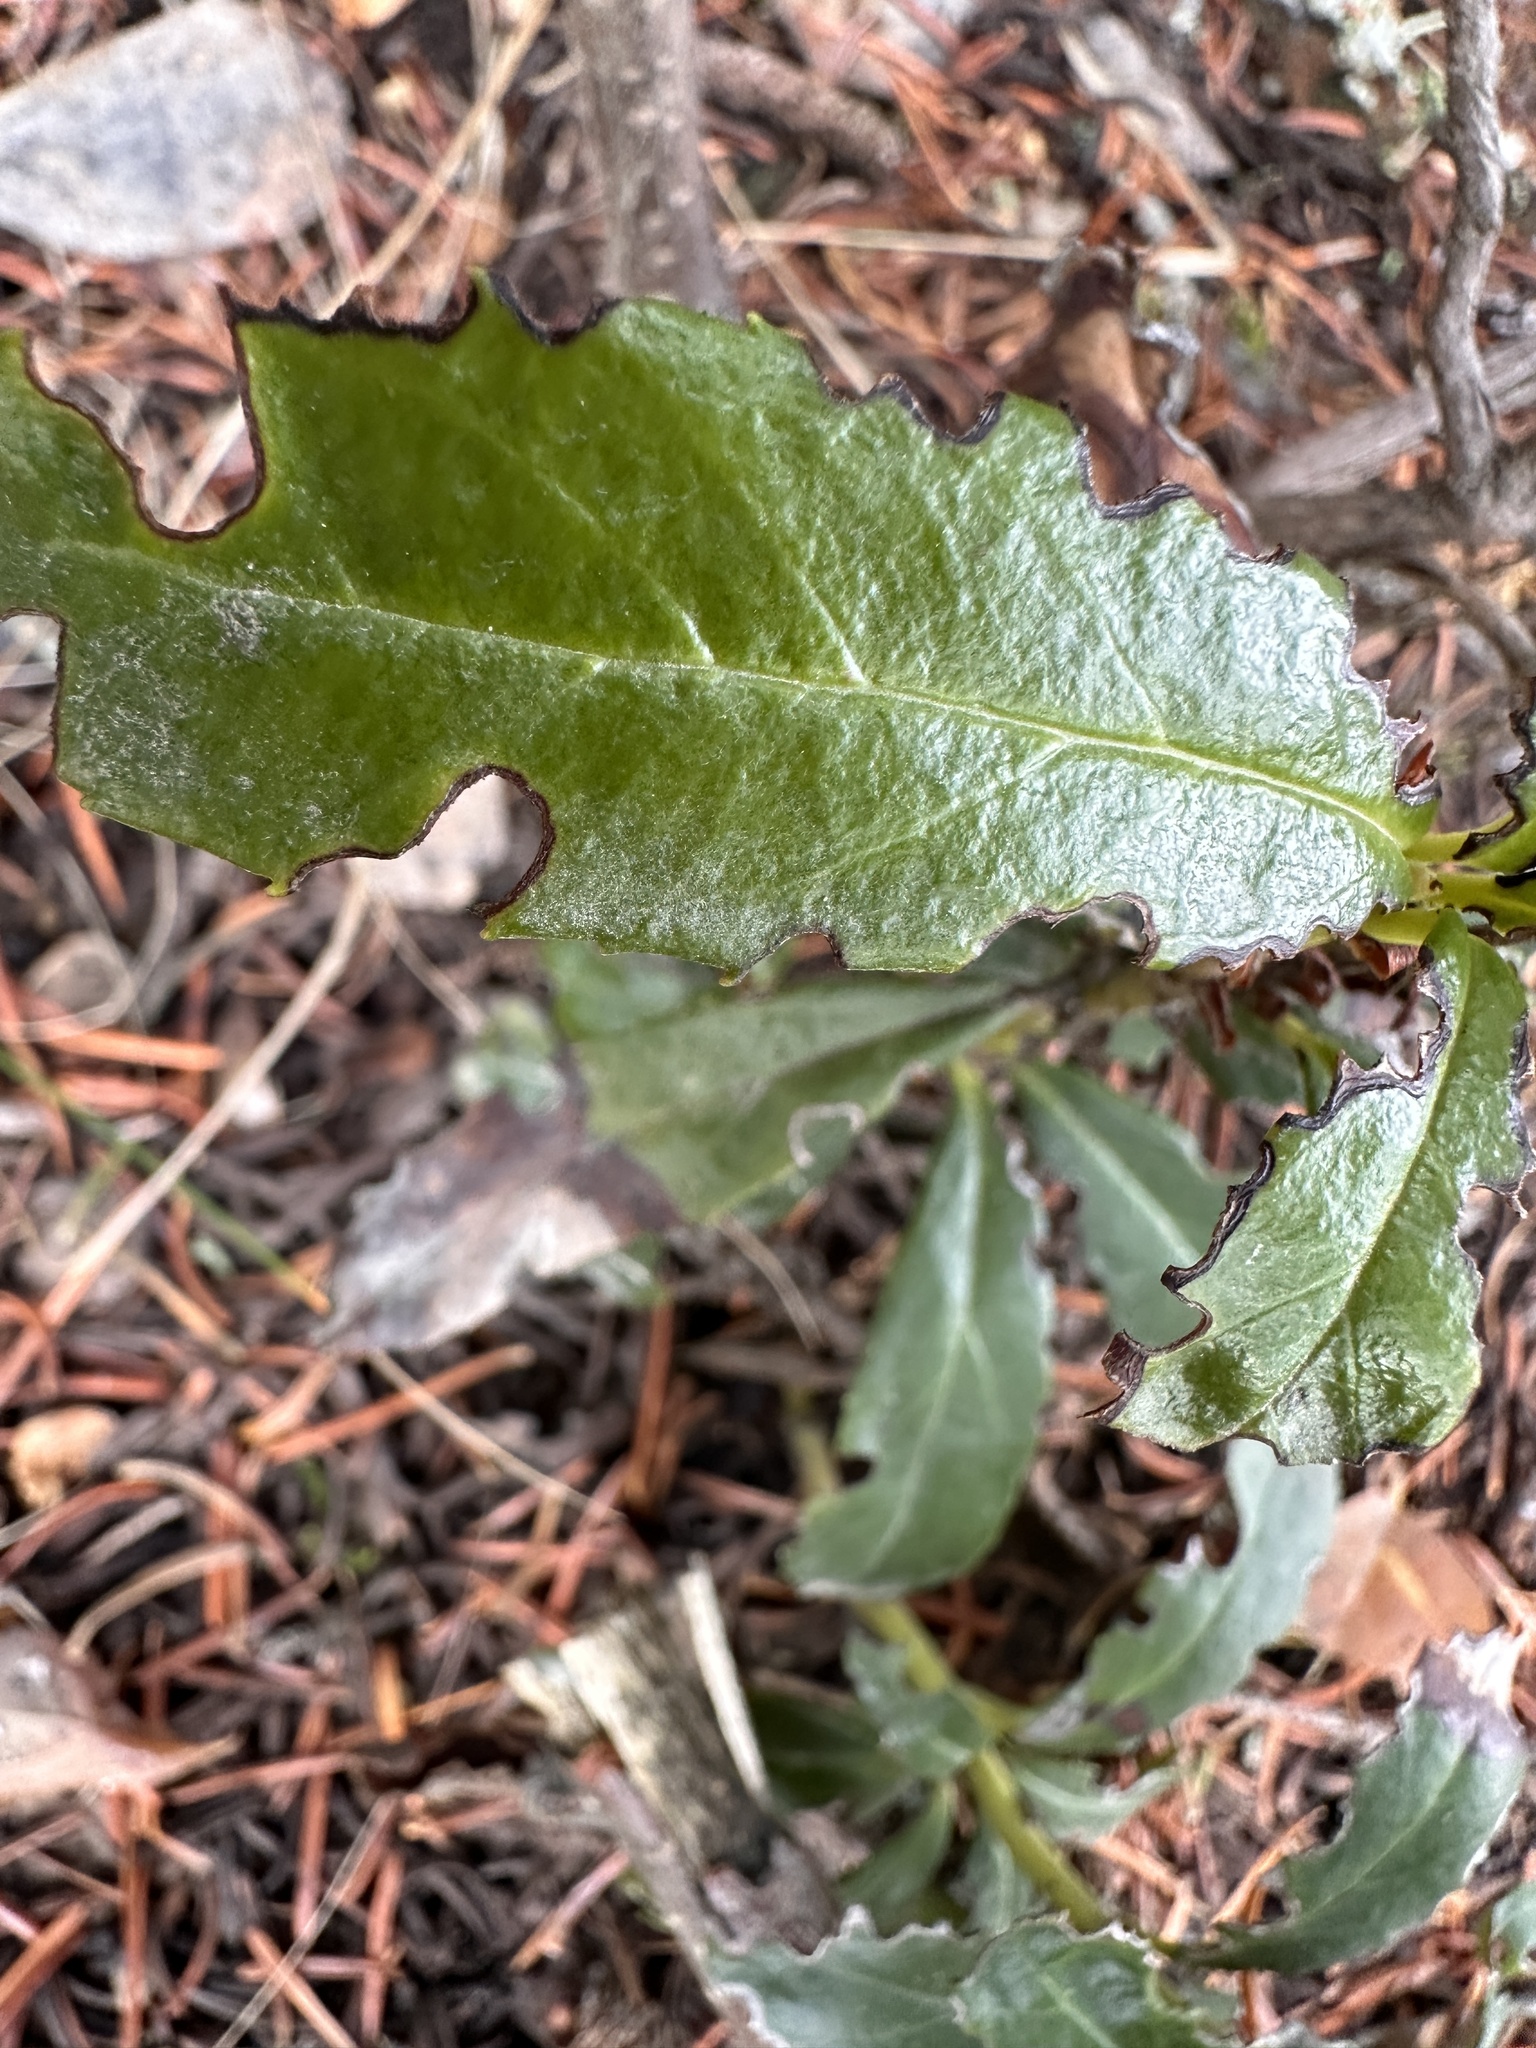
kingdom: Plantae
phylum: Tracheophyta
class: Magnoliopsida
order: Ericales
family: Ericaceae
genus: Chimaphila
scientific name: Chimaphila umbellata
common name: Pipsissewa
